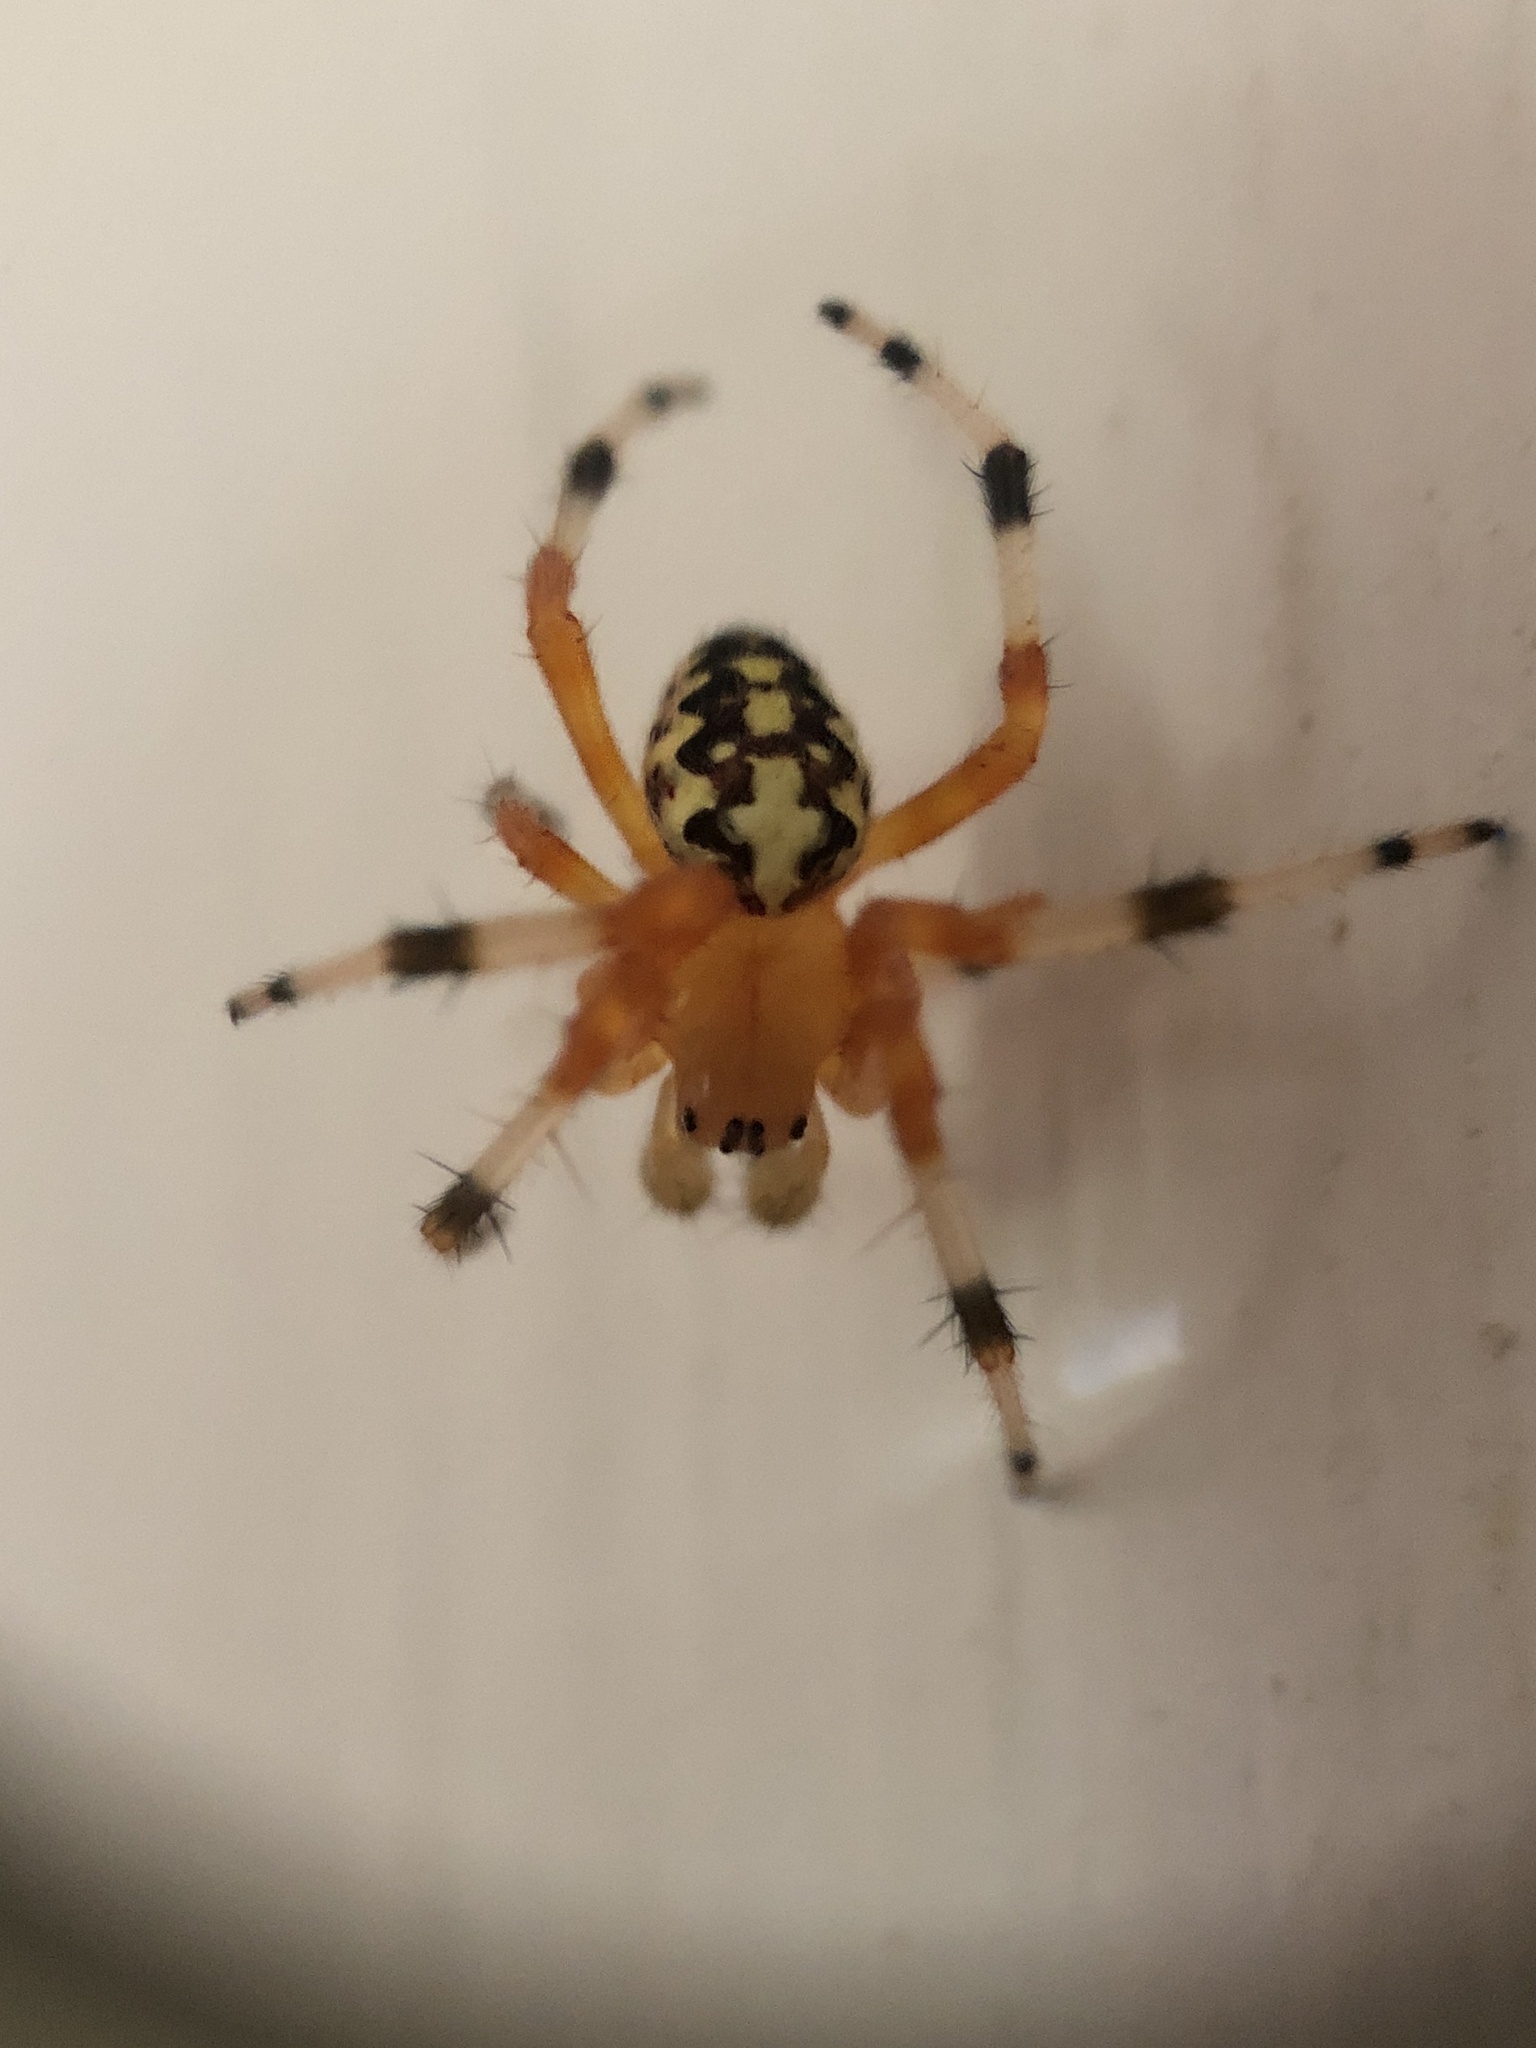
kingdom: Animalia
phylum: Arthropoda
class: Arachnida
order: Araneae
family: Araneidae
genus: Araneus
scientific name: Araneus marmoreus
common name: Marbled orbweaver
